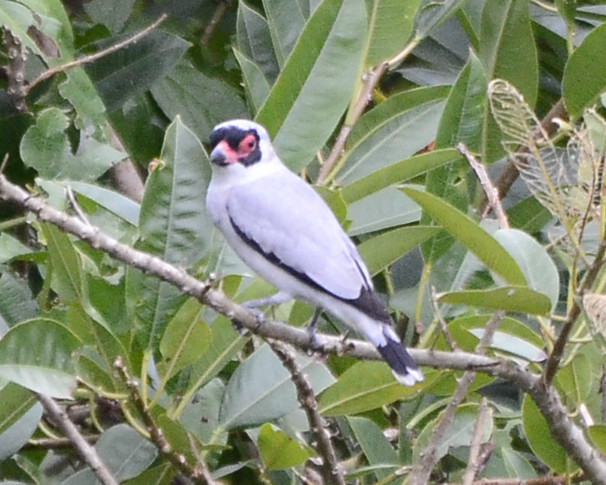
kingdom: Animalia
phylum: Chordata
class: Aves
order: Passeriformes
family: Cotingidae
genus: Tityra
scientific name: Tityra semifasciata
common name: Masked tityra
